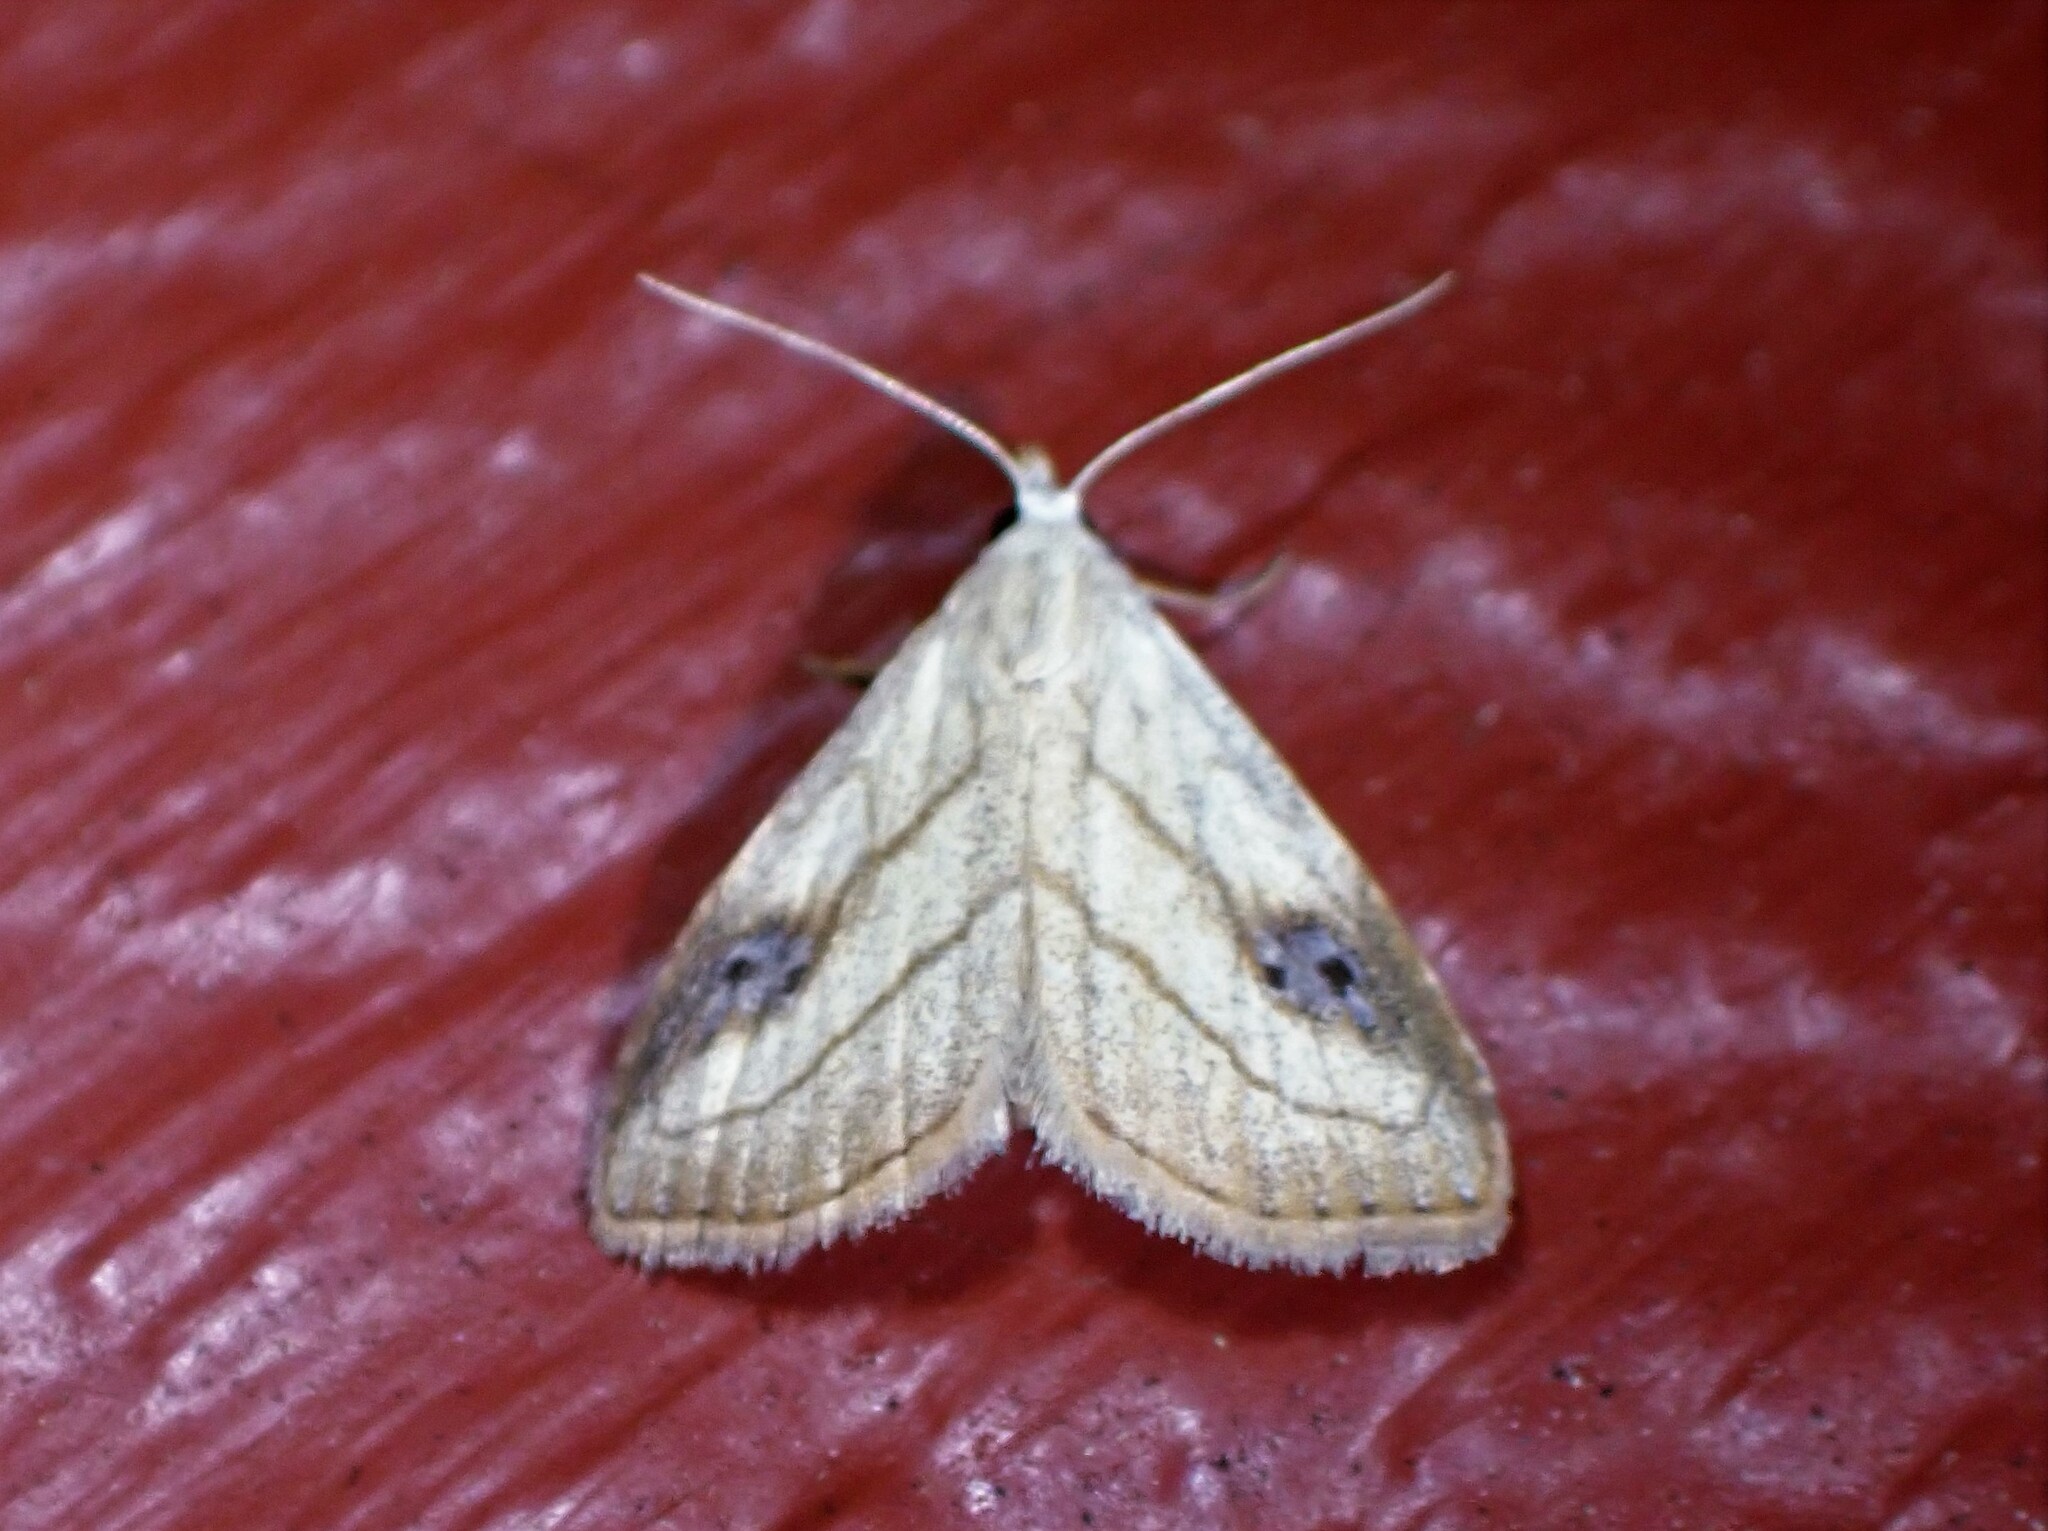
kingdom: Animalia
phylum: Arthropoda
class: Insecta
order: Lepidoptera
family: Erebidae
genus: Rivula
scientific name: Rivula propinqualis
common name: Spotted grass moth
